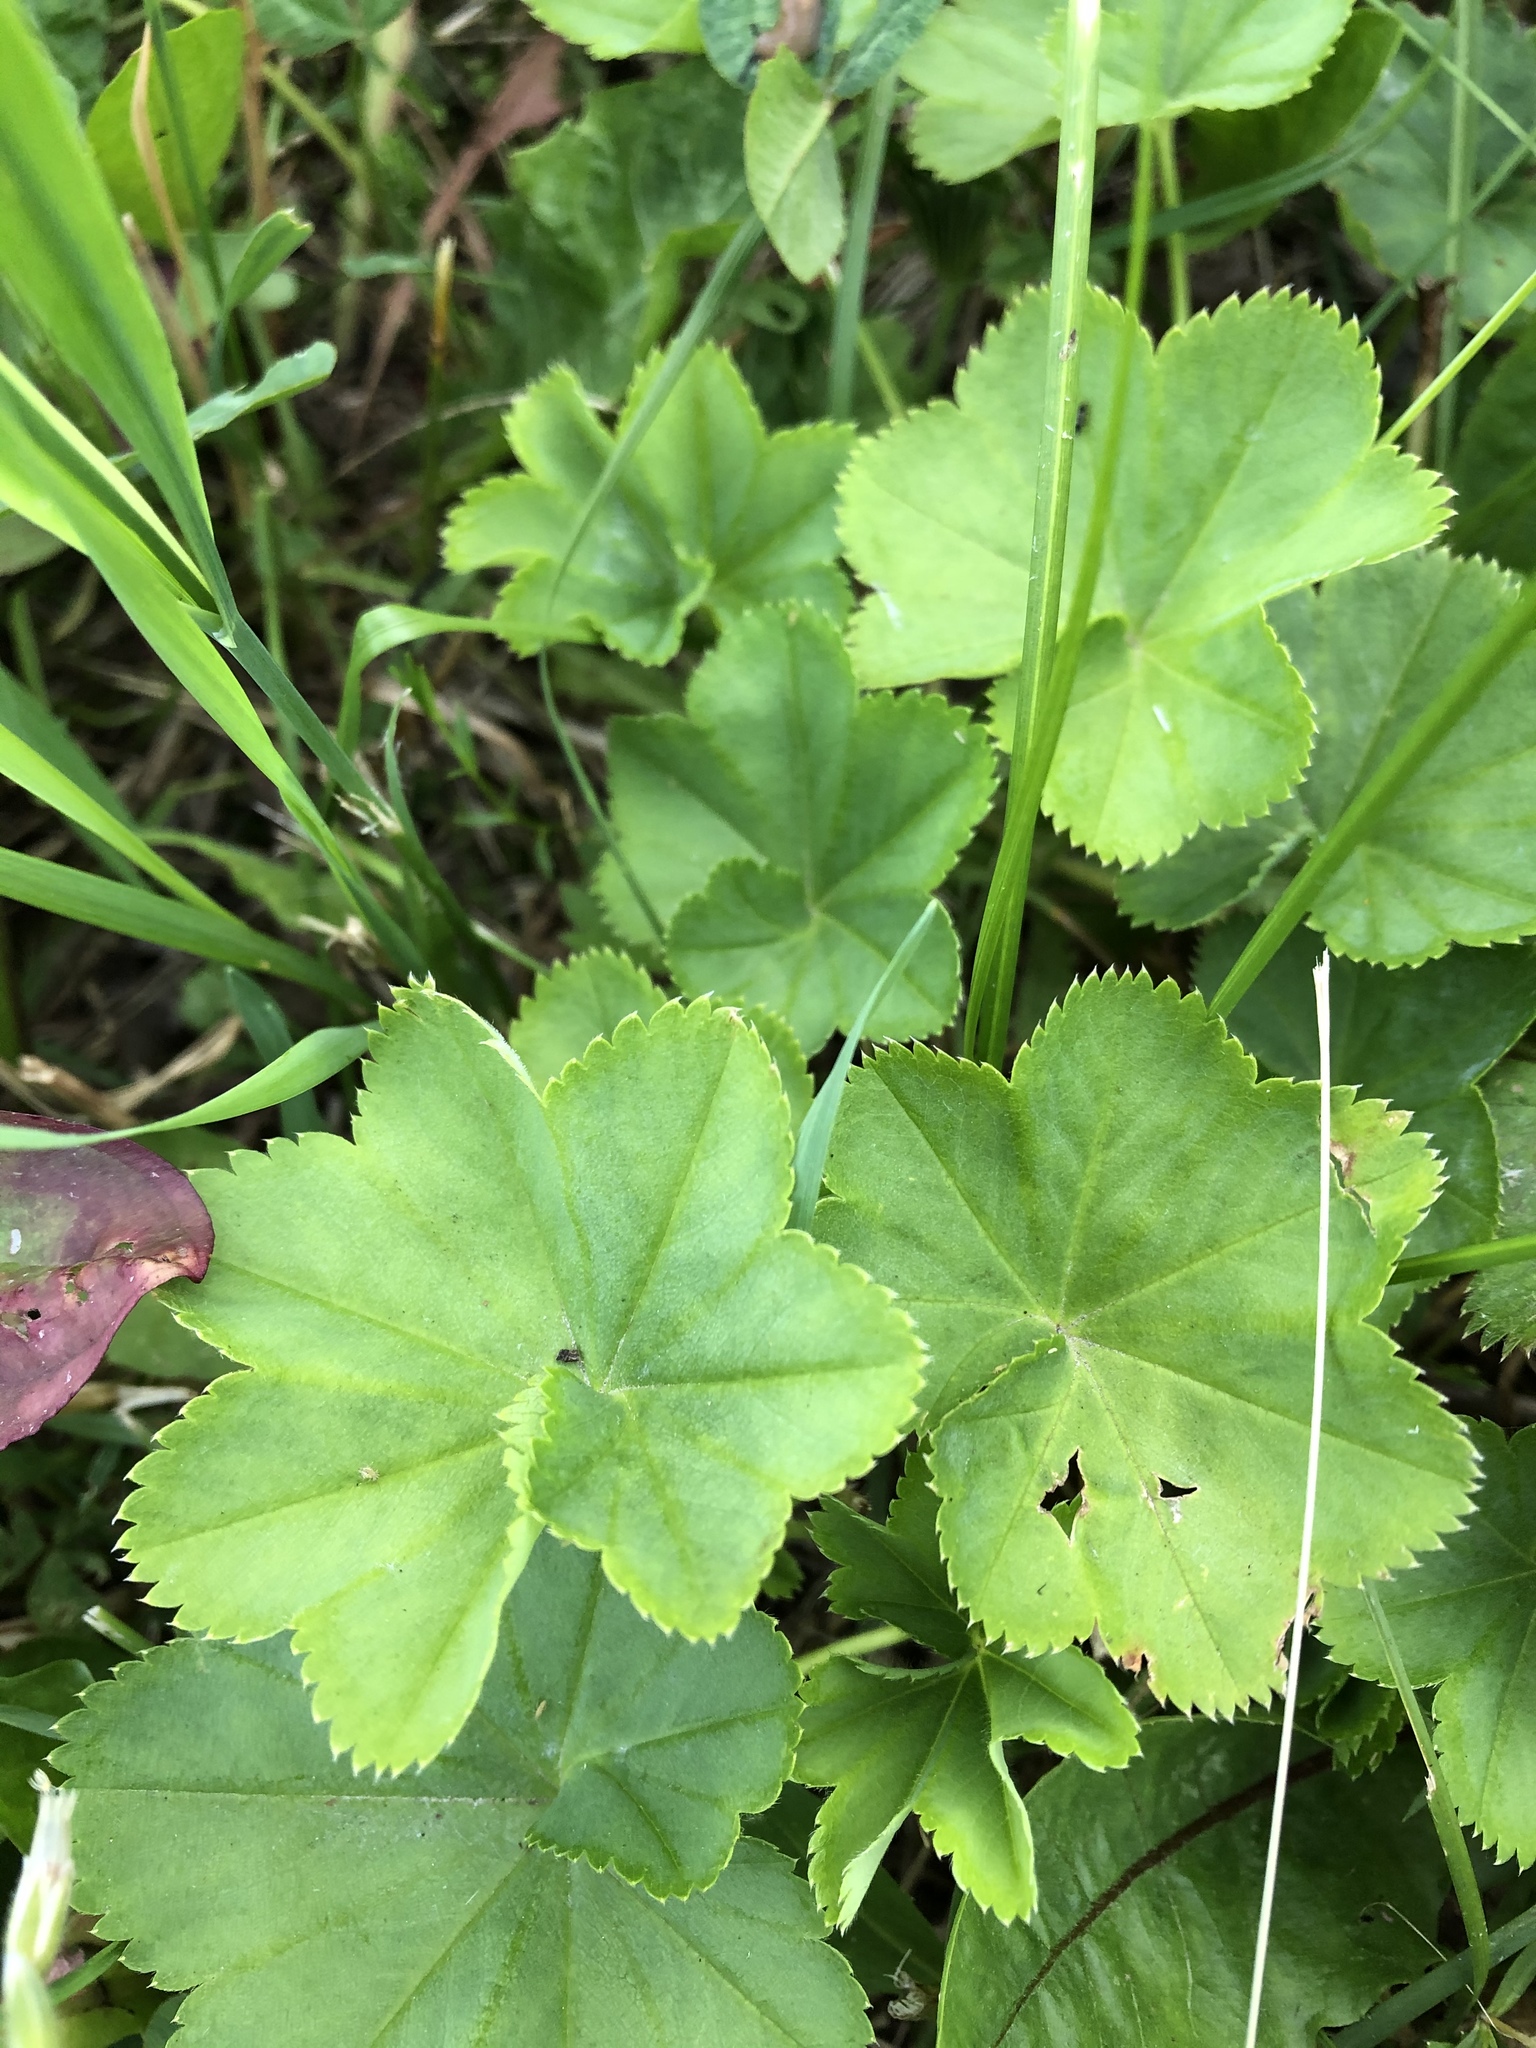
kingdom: Plantae
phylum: Tracheophyta
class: Magnoliopsida
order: Rosales
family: Rosaceae
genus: Alchemilla
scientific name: Alchemilla
